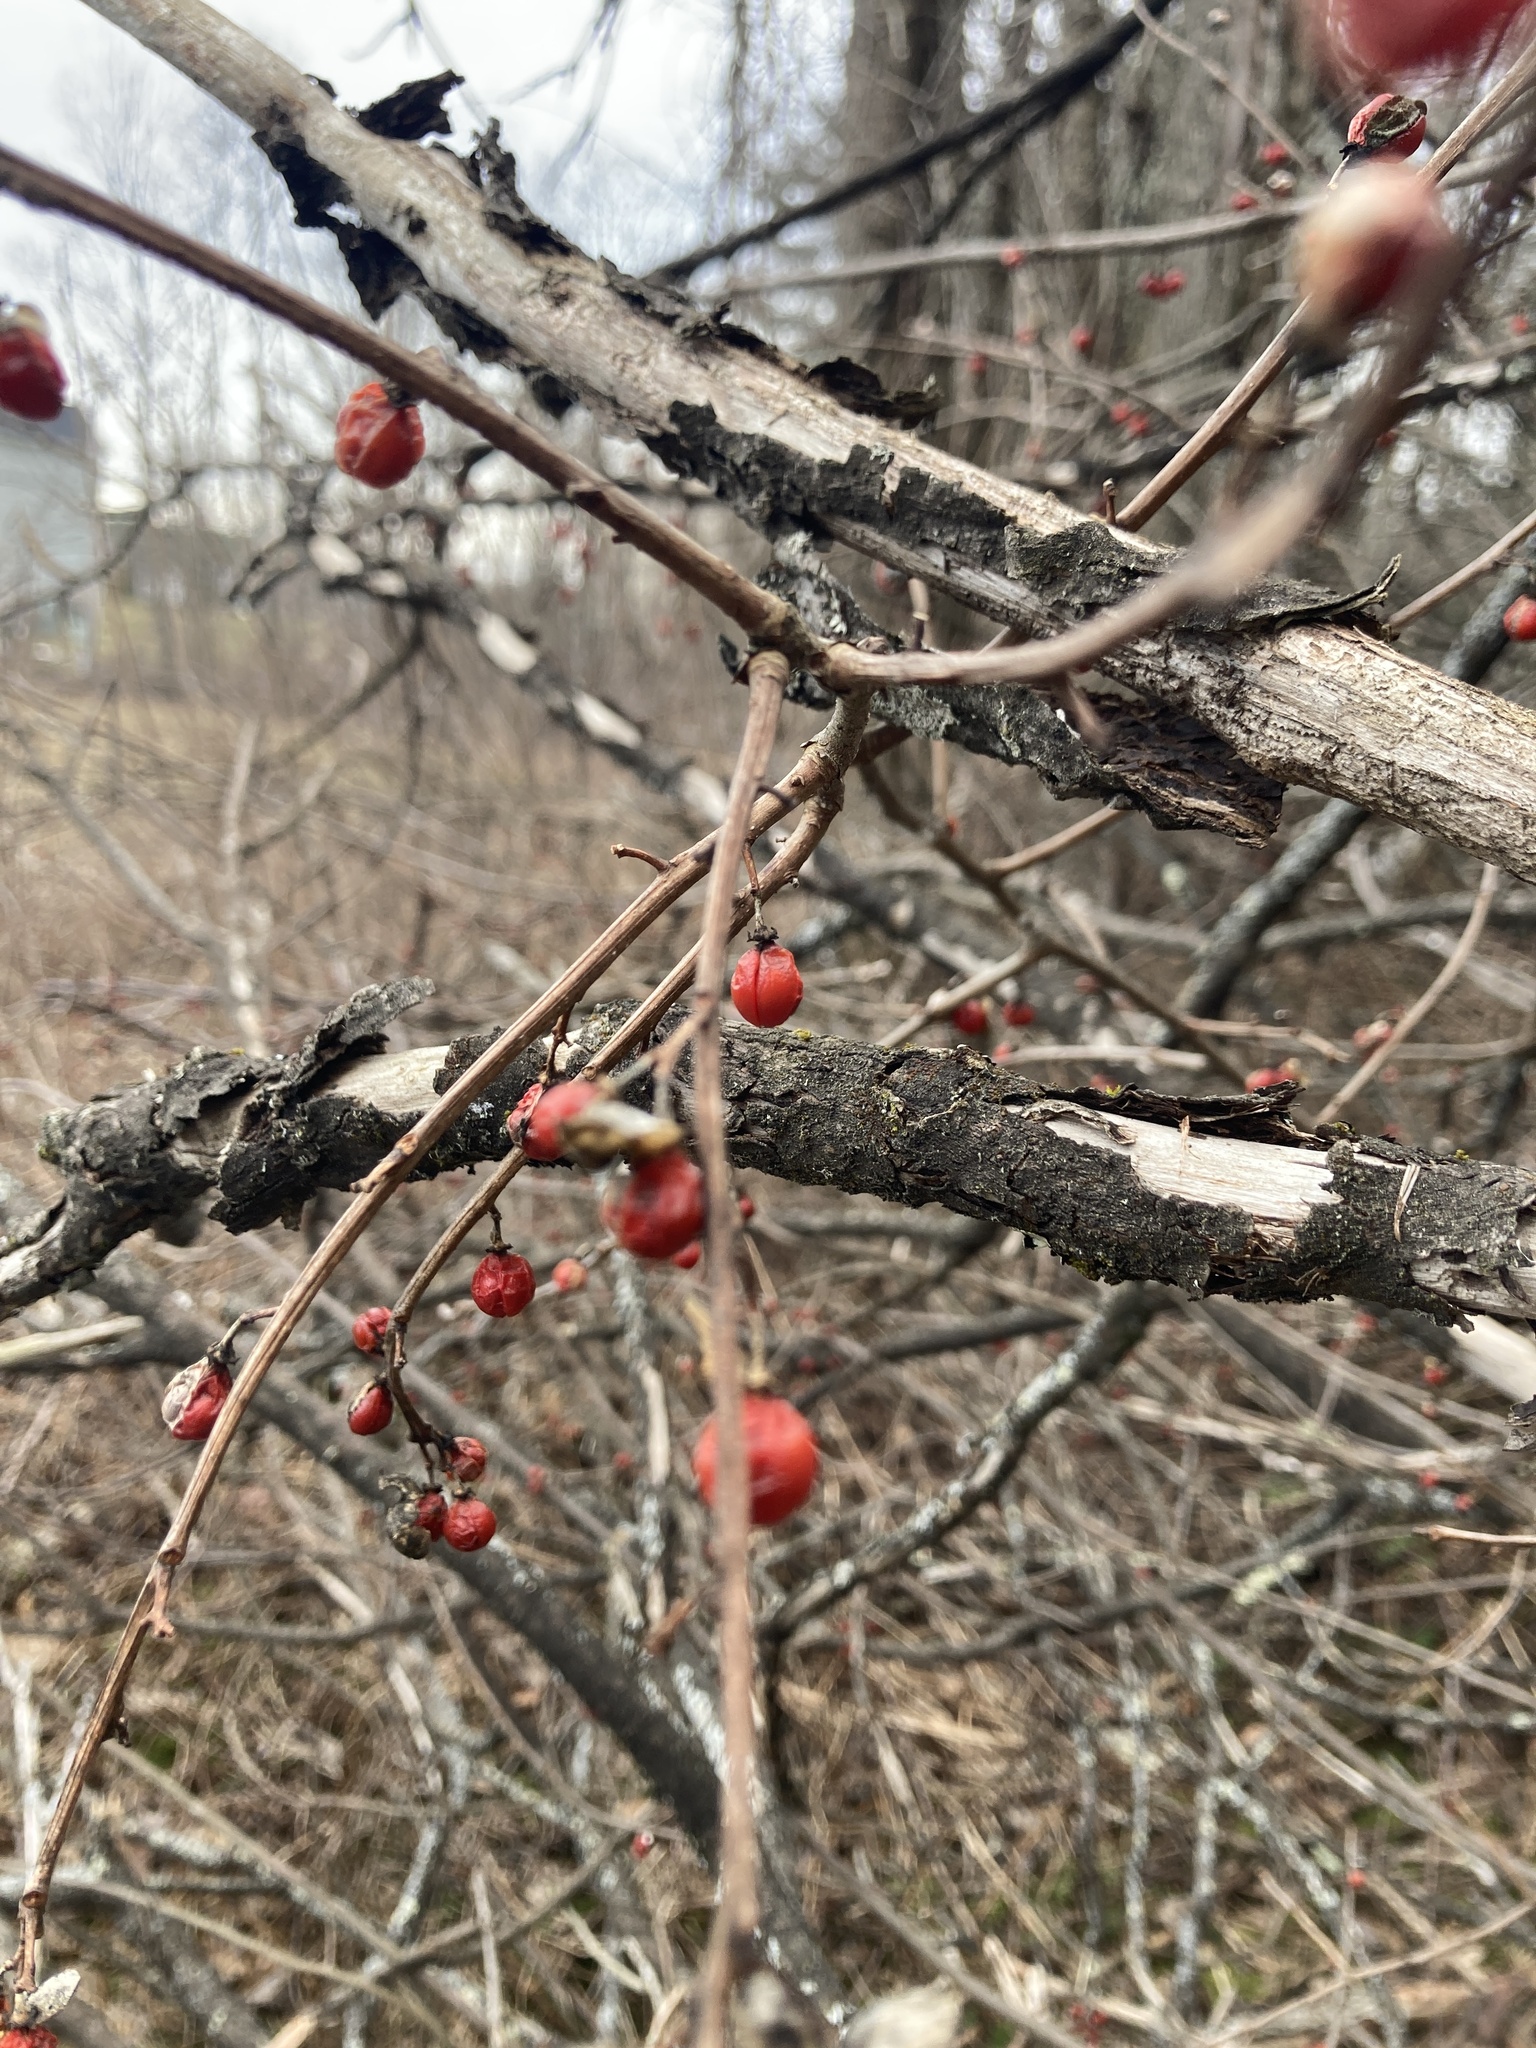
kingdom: Plantae
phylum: Tracheophyta
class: Magnoliopsida
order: Celastrales
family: Celastraceae
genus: Celastrus
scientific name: Celastrus orbiculatus
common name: Oriental bittersweet
